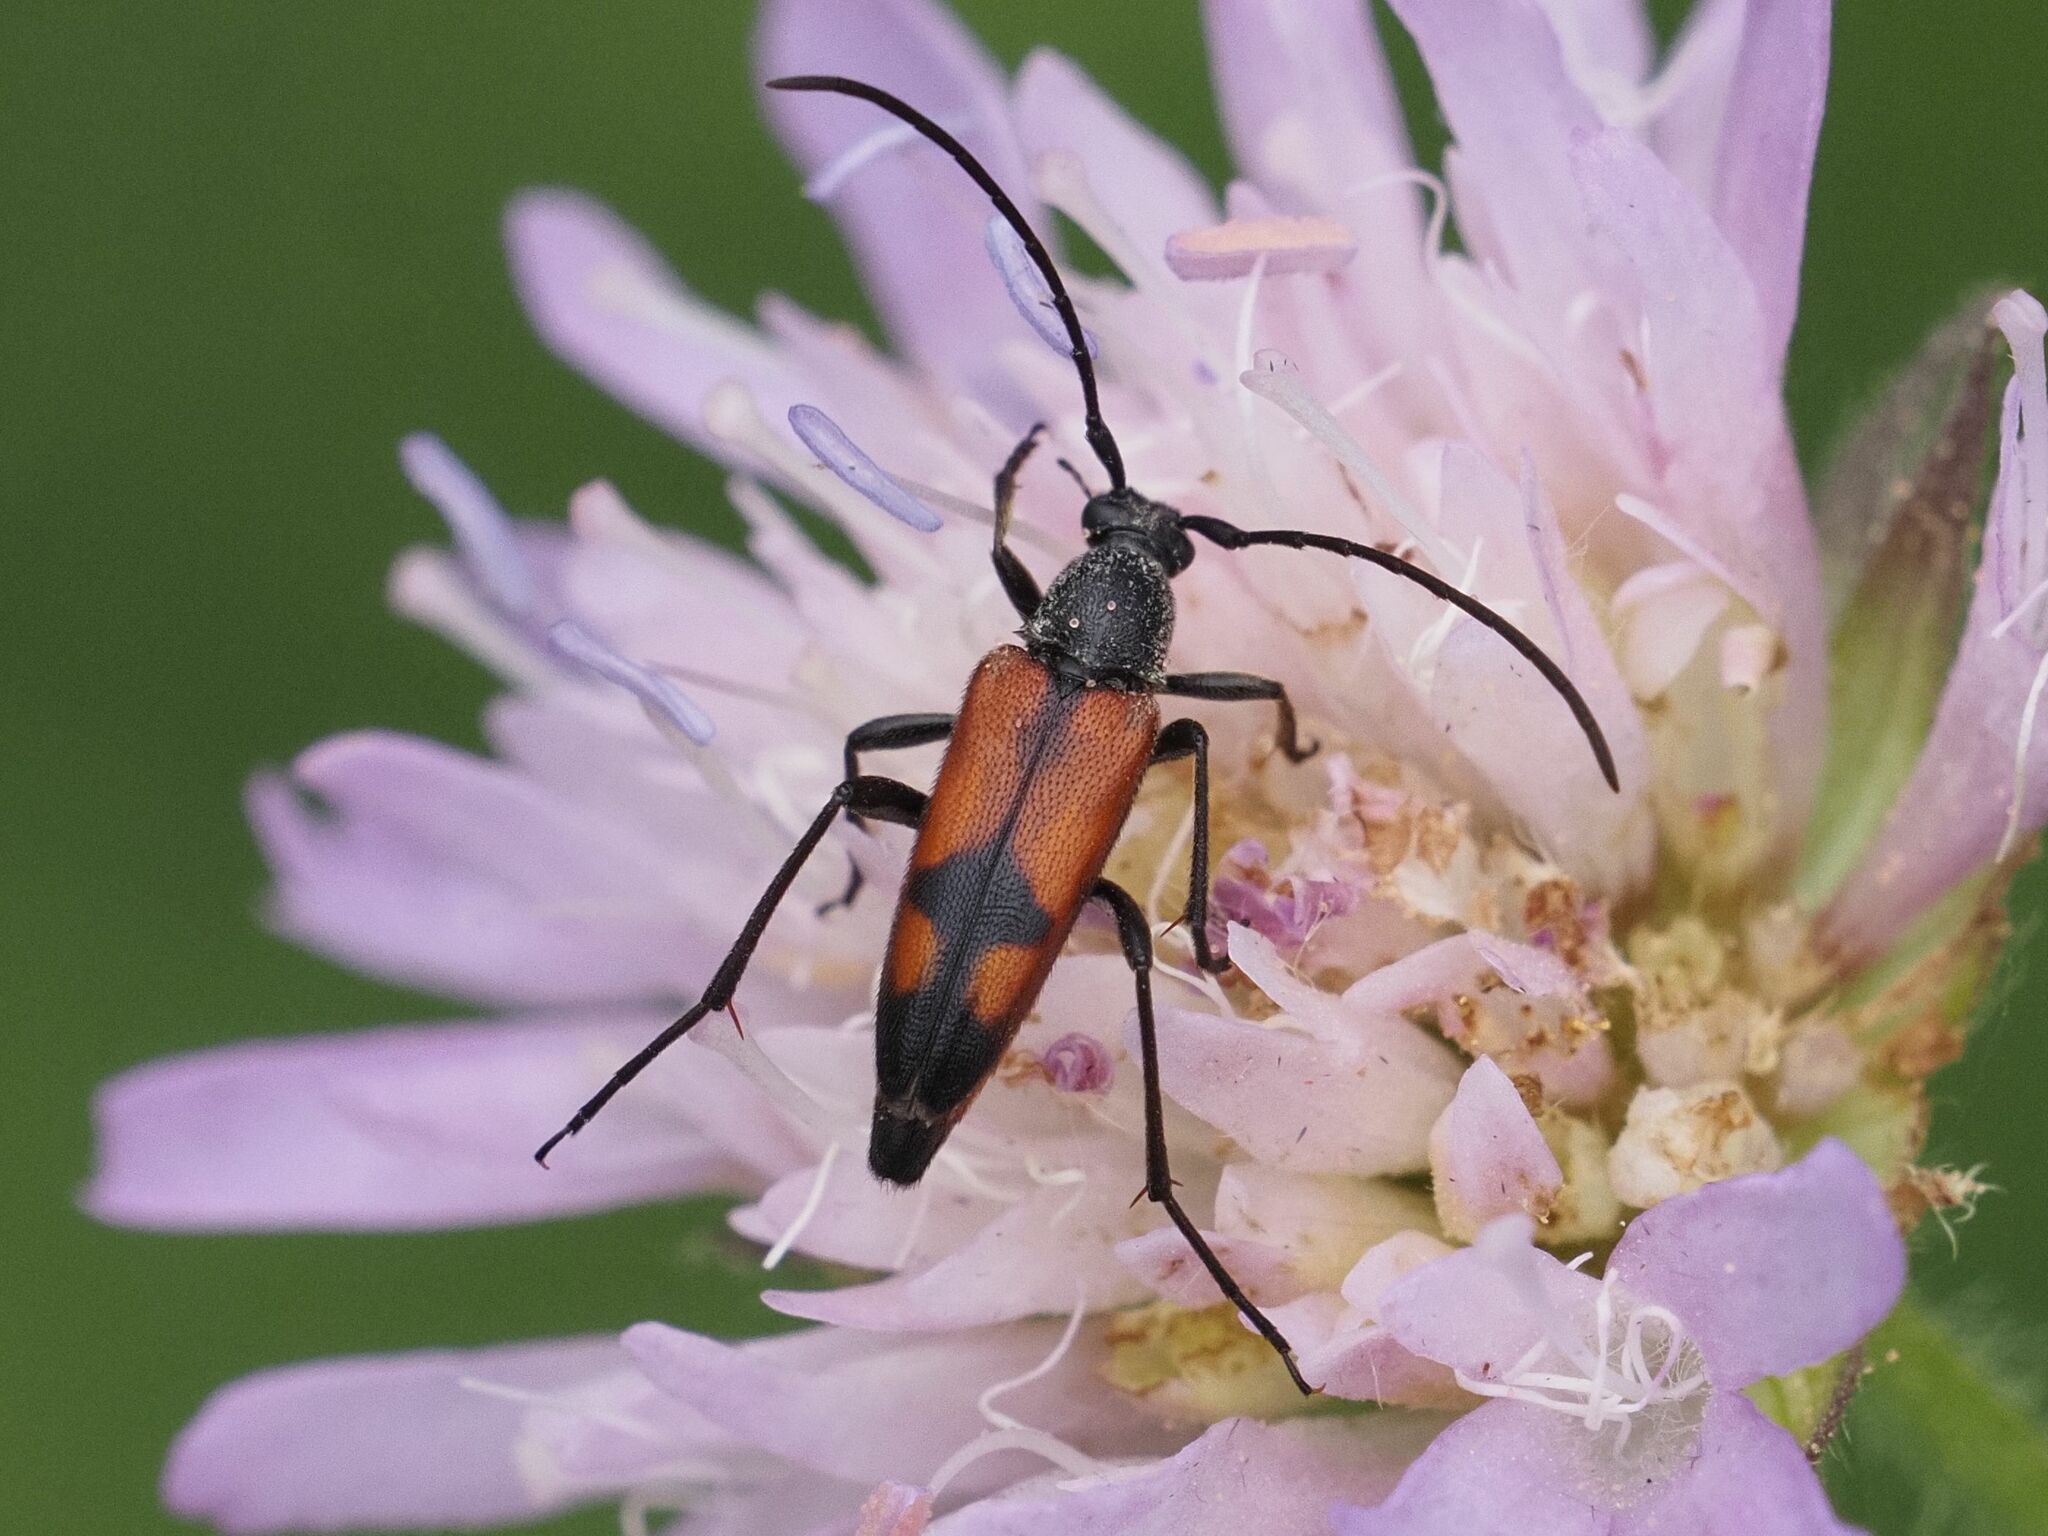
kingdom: Animalia
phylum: Arthropoda
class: Insecta
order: Coleoptera
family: Cerambycidae
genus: Stenurella
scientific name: Stenurella bifasciata
